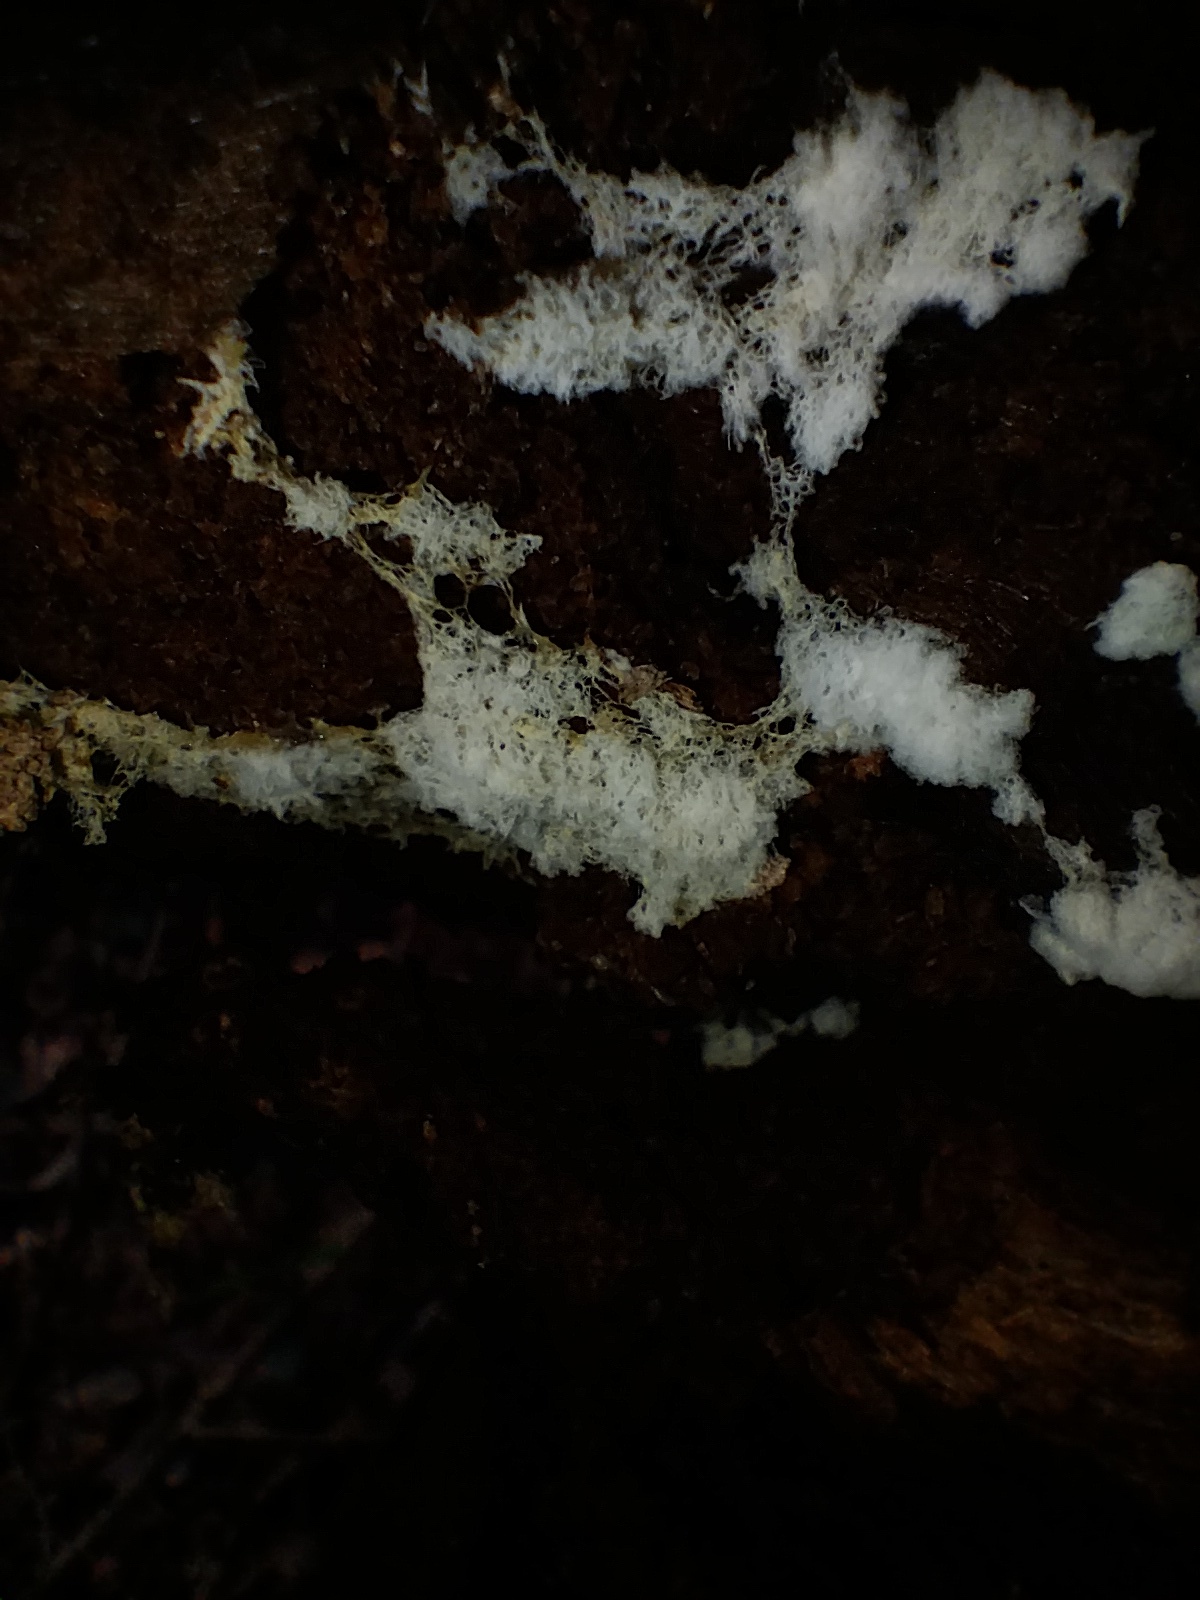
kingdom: Protozoa
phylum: Mycetozoa
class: Protosteliomycetes
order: Ceratiomyxales
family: Ceratiomyxaceae
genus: Ceratiomyxa
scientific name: Ceratiomyxa fruticulosa
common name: Honeycomb coral slime mold
